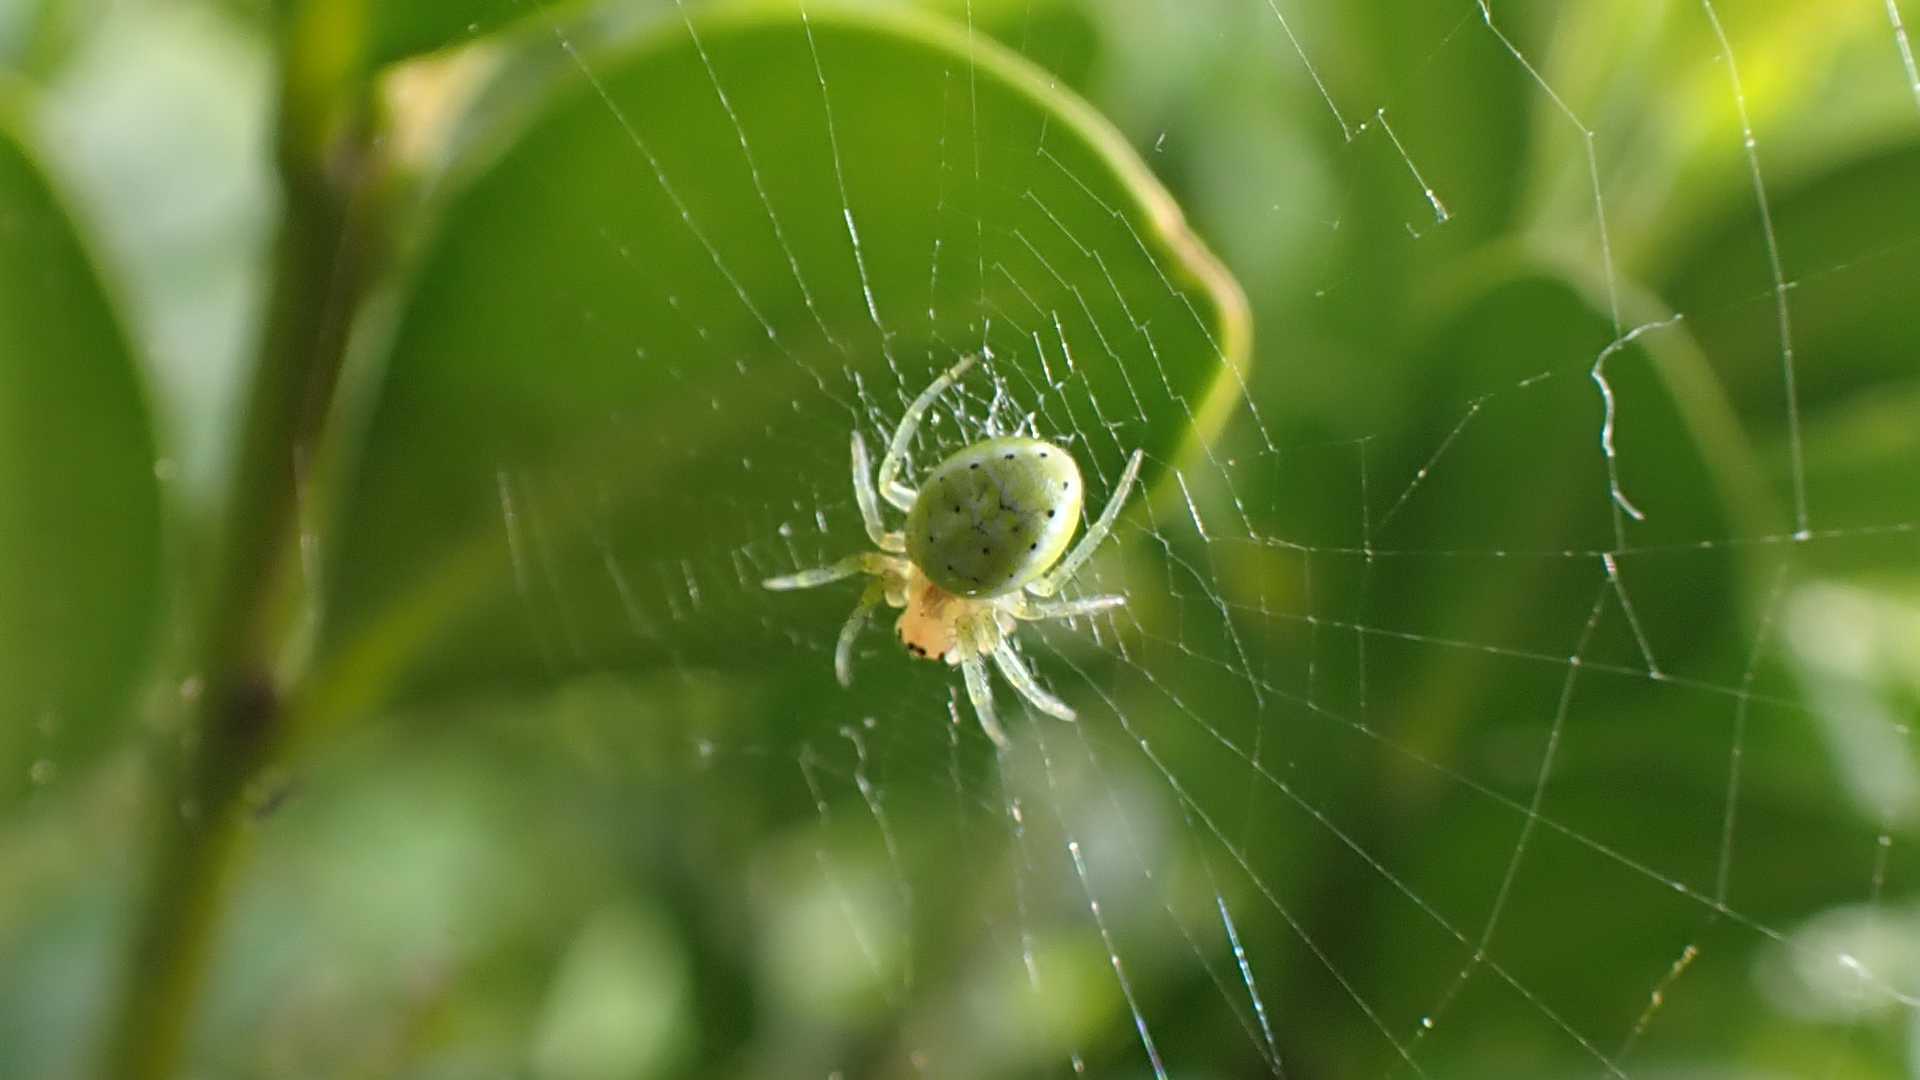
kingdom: Animalia
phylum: Arthropoda
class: Arachnida
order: Araneae
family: Araneidae
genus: Araniella
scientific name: Araniella
